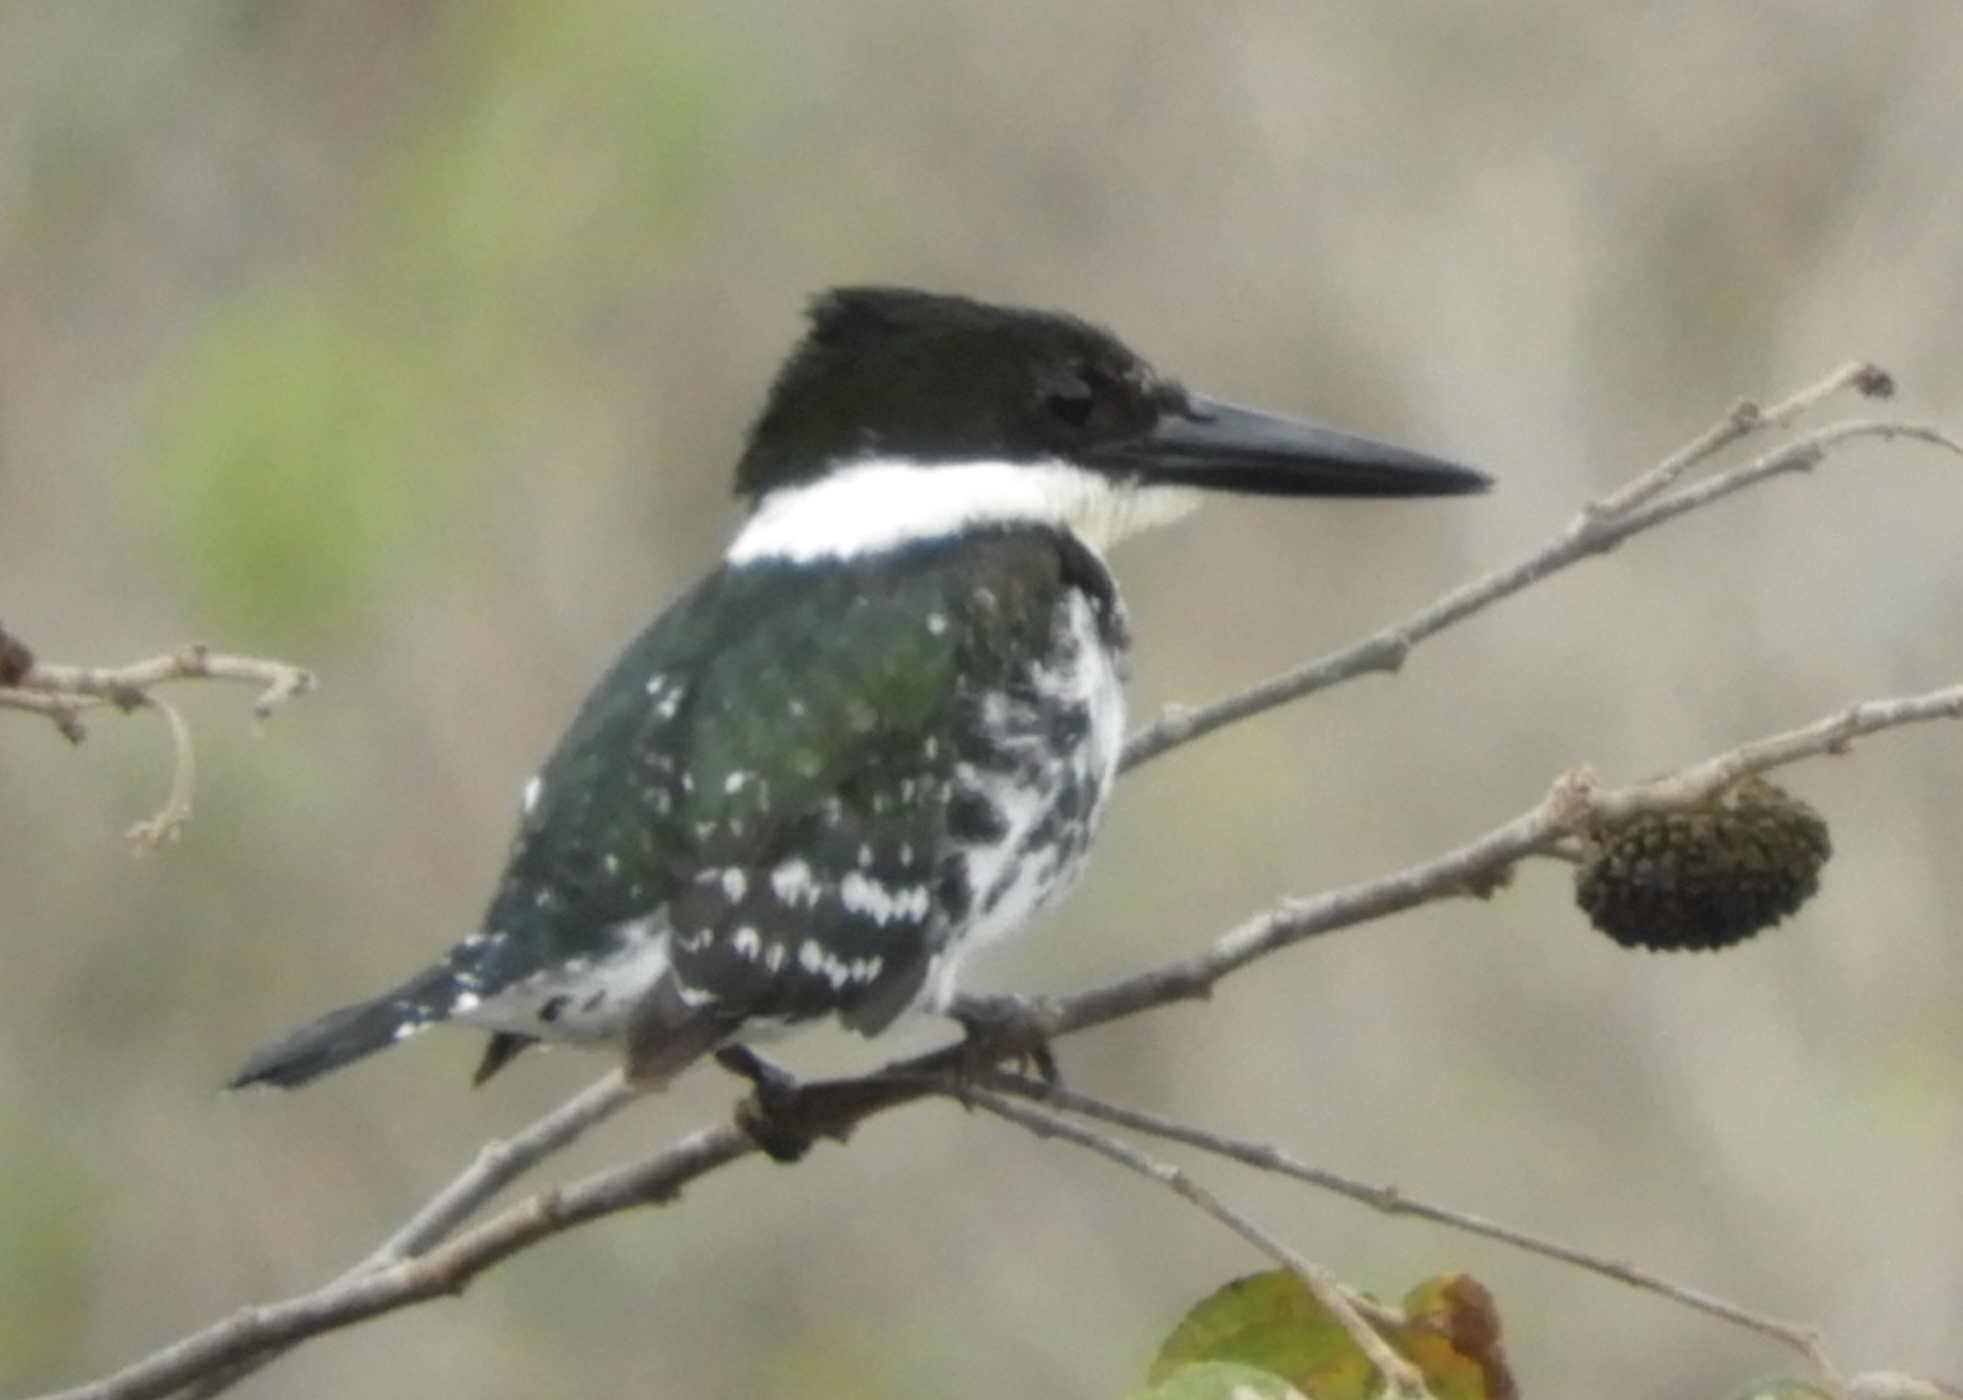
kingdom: Animalia
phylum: Chordata
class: Aves
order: Coraciiformes
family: Alcedinidae
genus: Chloroceryle
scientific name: Chloroceryle americana
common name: Green kingfisher
